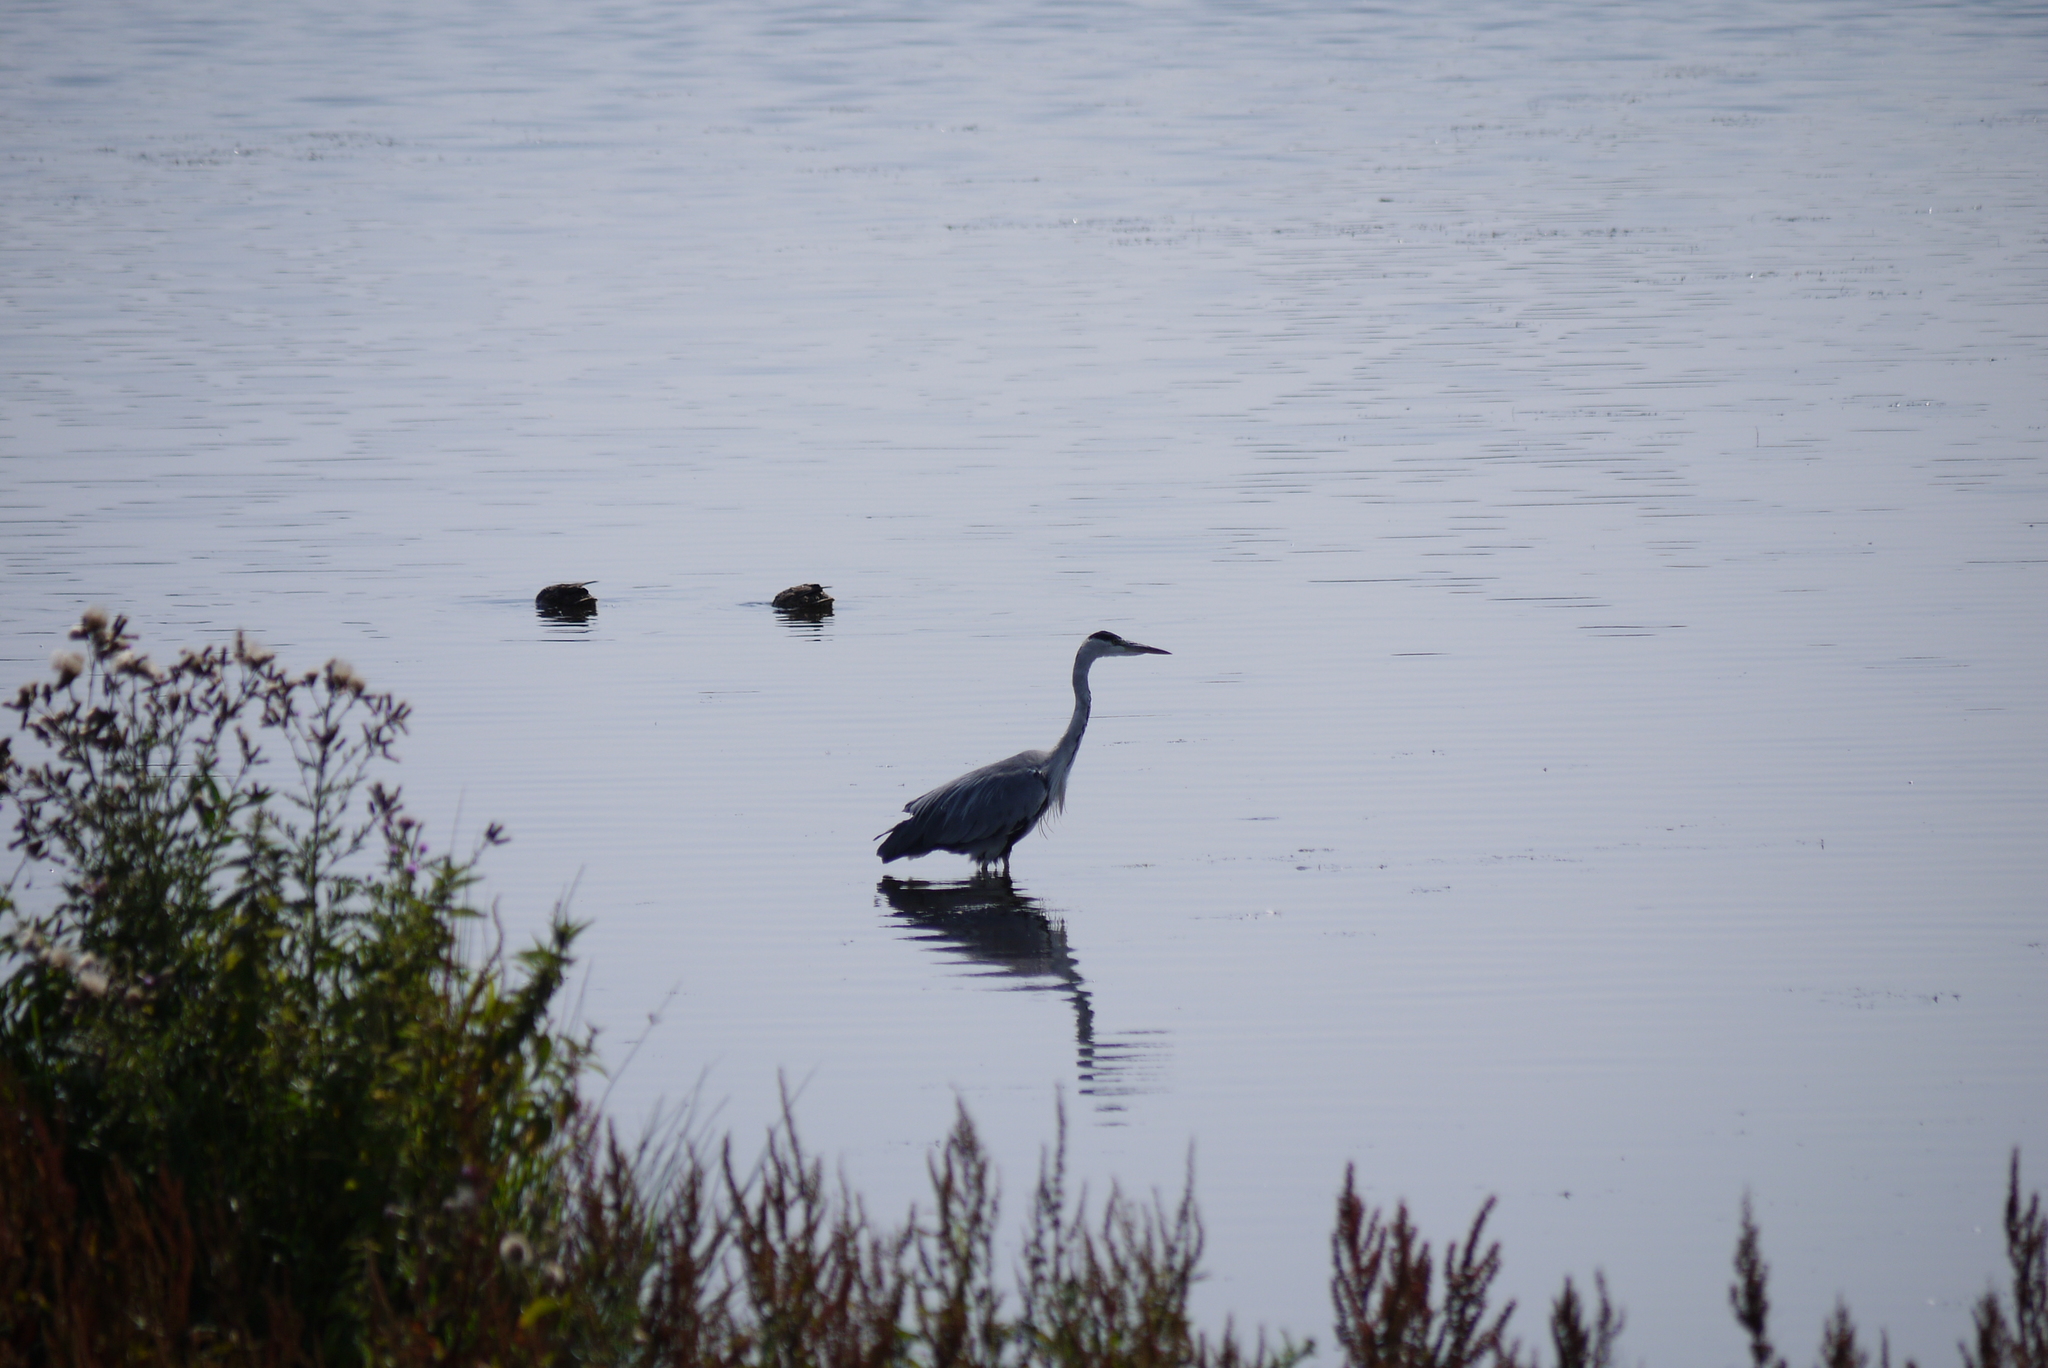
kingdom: Animalia
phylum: Chordata
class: Aves
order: Pelecaniformes
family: Ardeidae
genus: Ardea
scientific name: Ardea cinerea
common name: Grey heron
